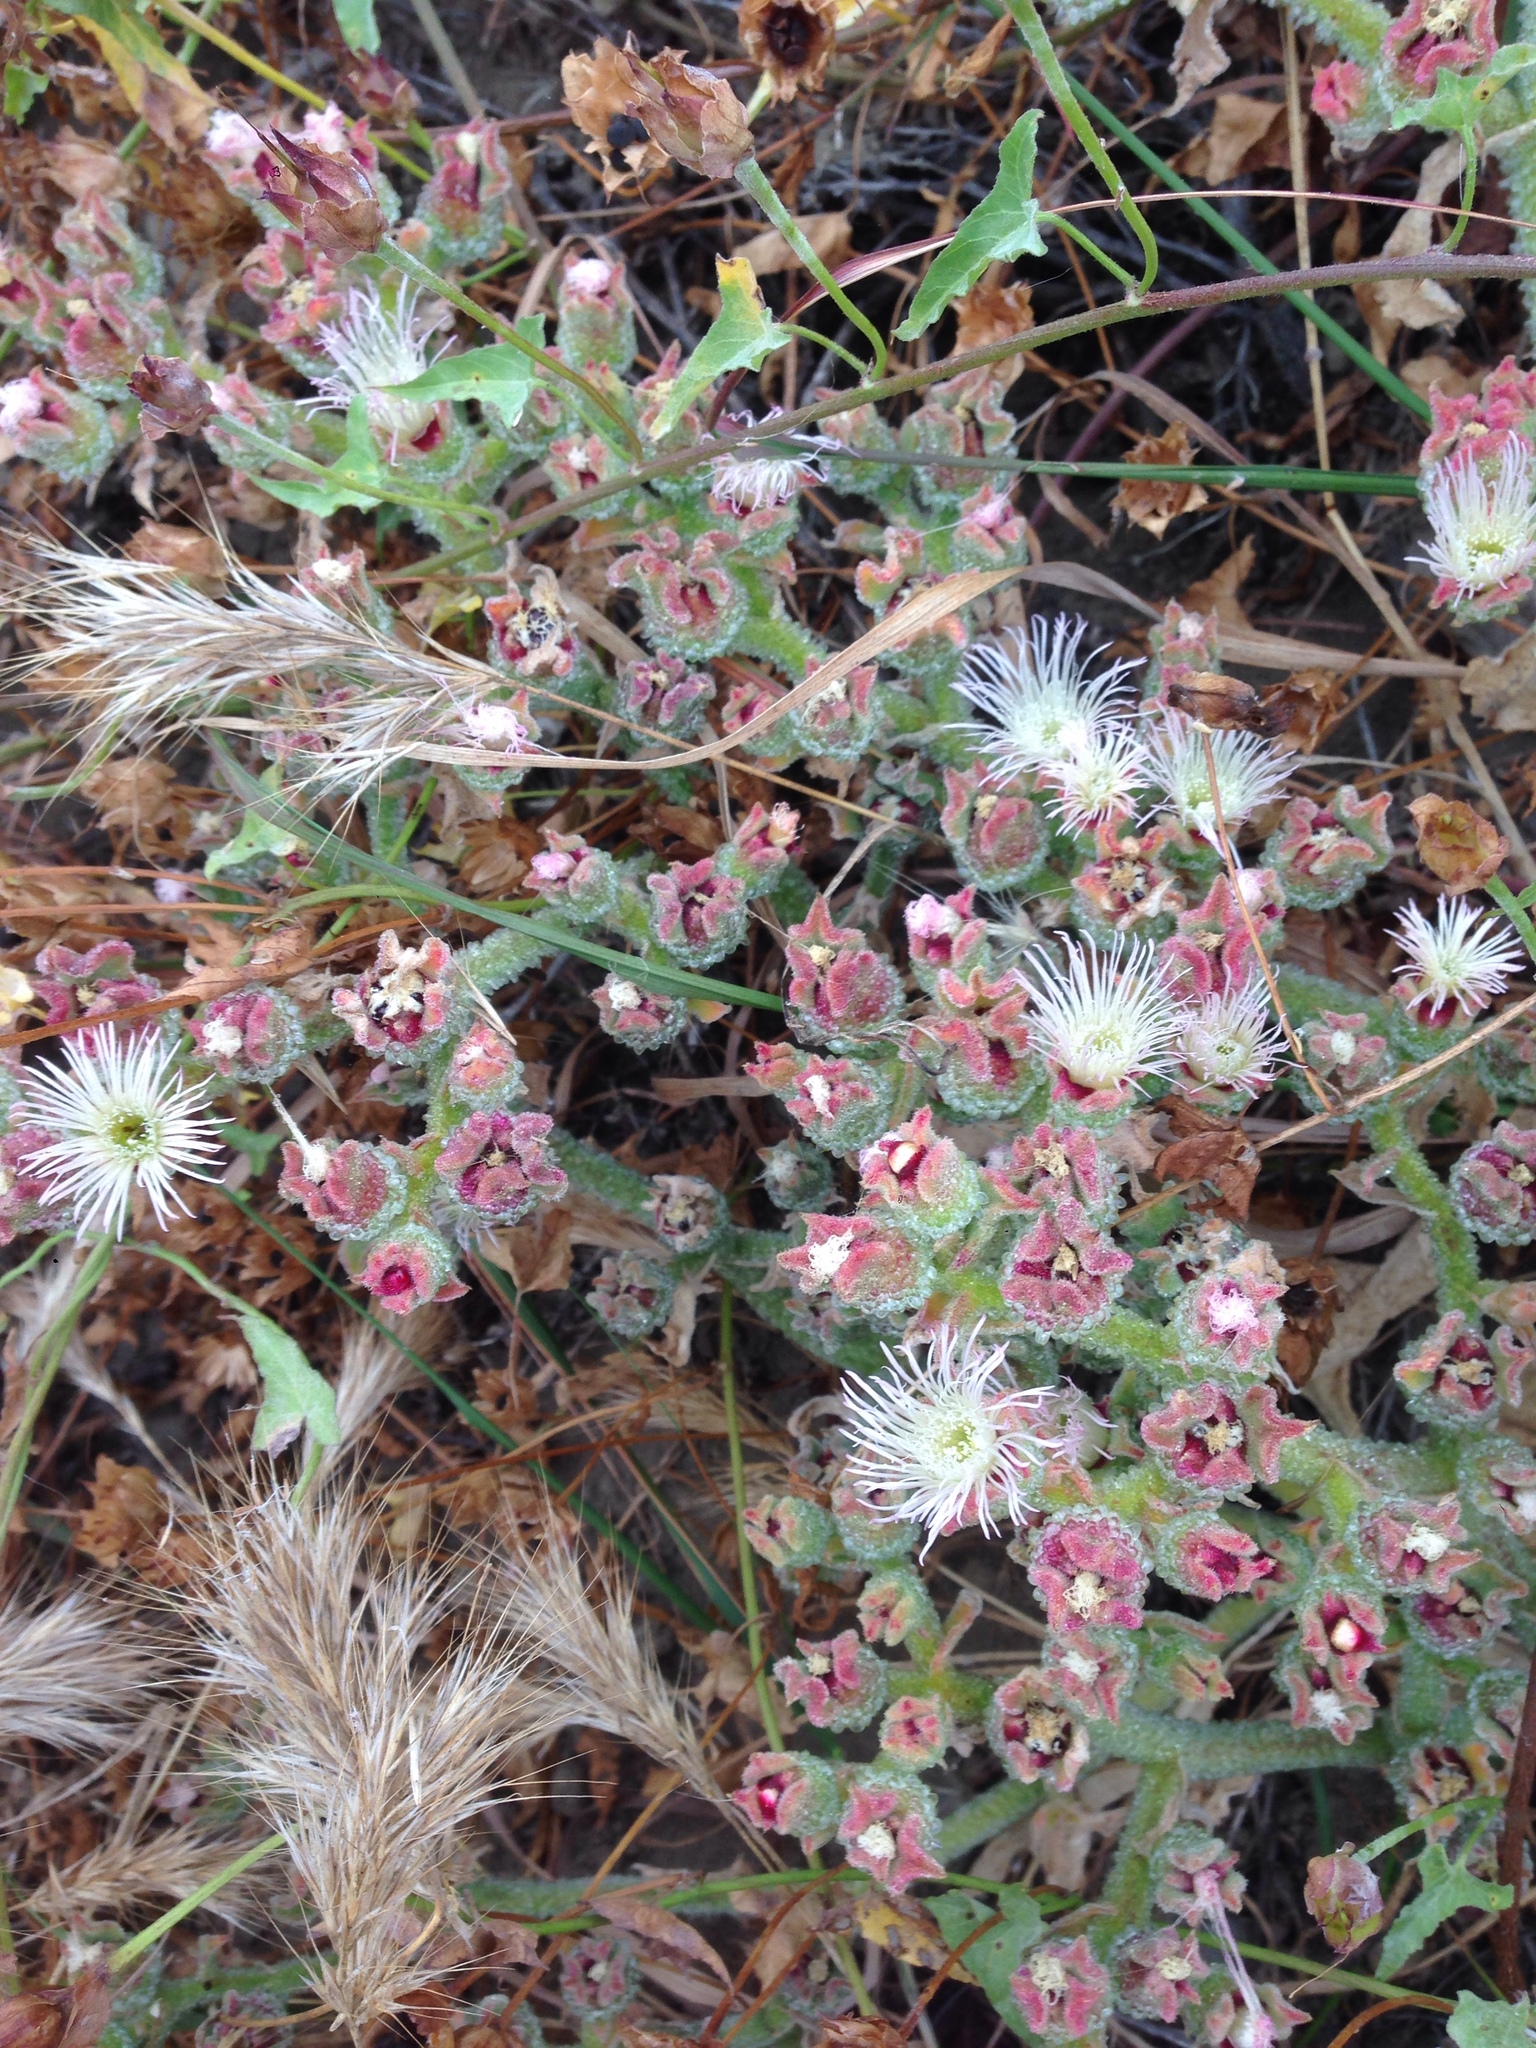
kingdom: Plantae
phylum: Tracheophyta
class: Magnoliopsida
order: Caryophyllales
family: Aizoaceae
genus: Mesembryanthemum
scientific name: Mesembryanthemum crystallinum
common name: Common iceplant
